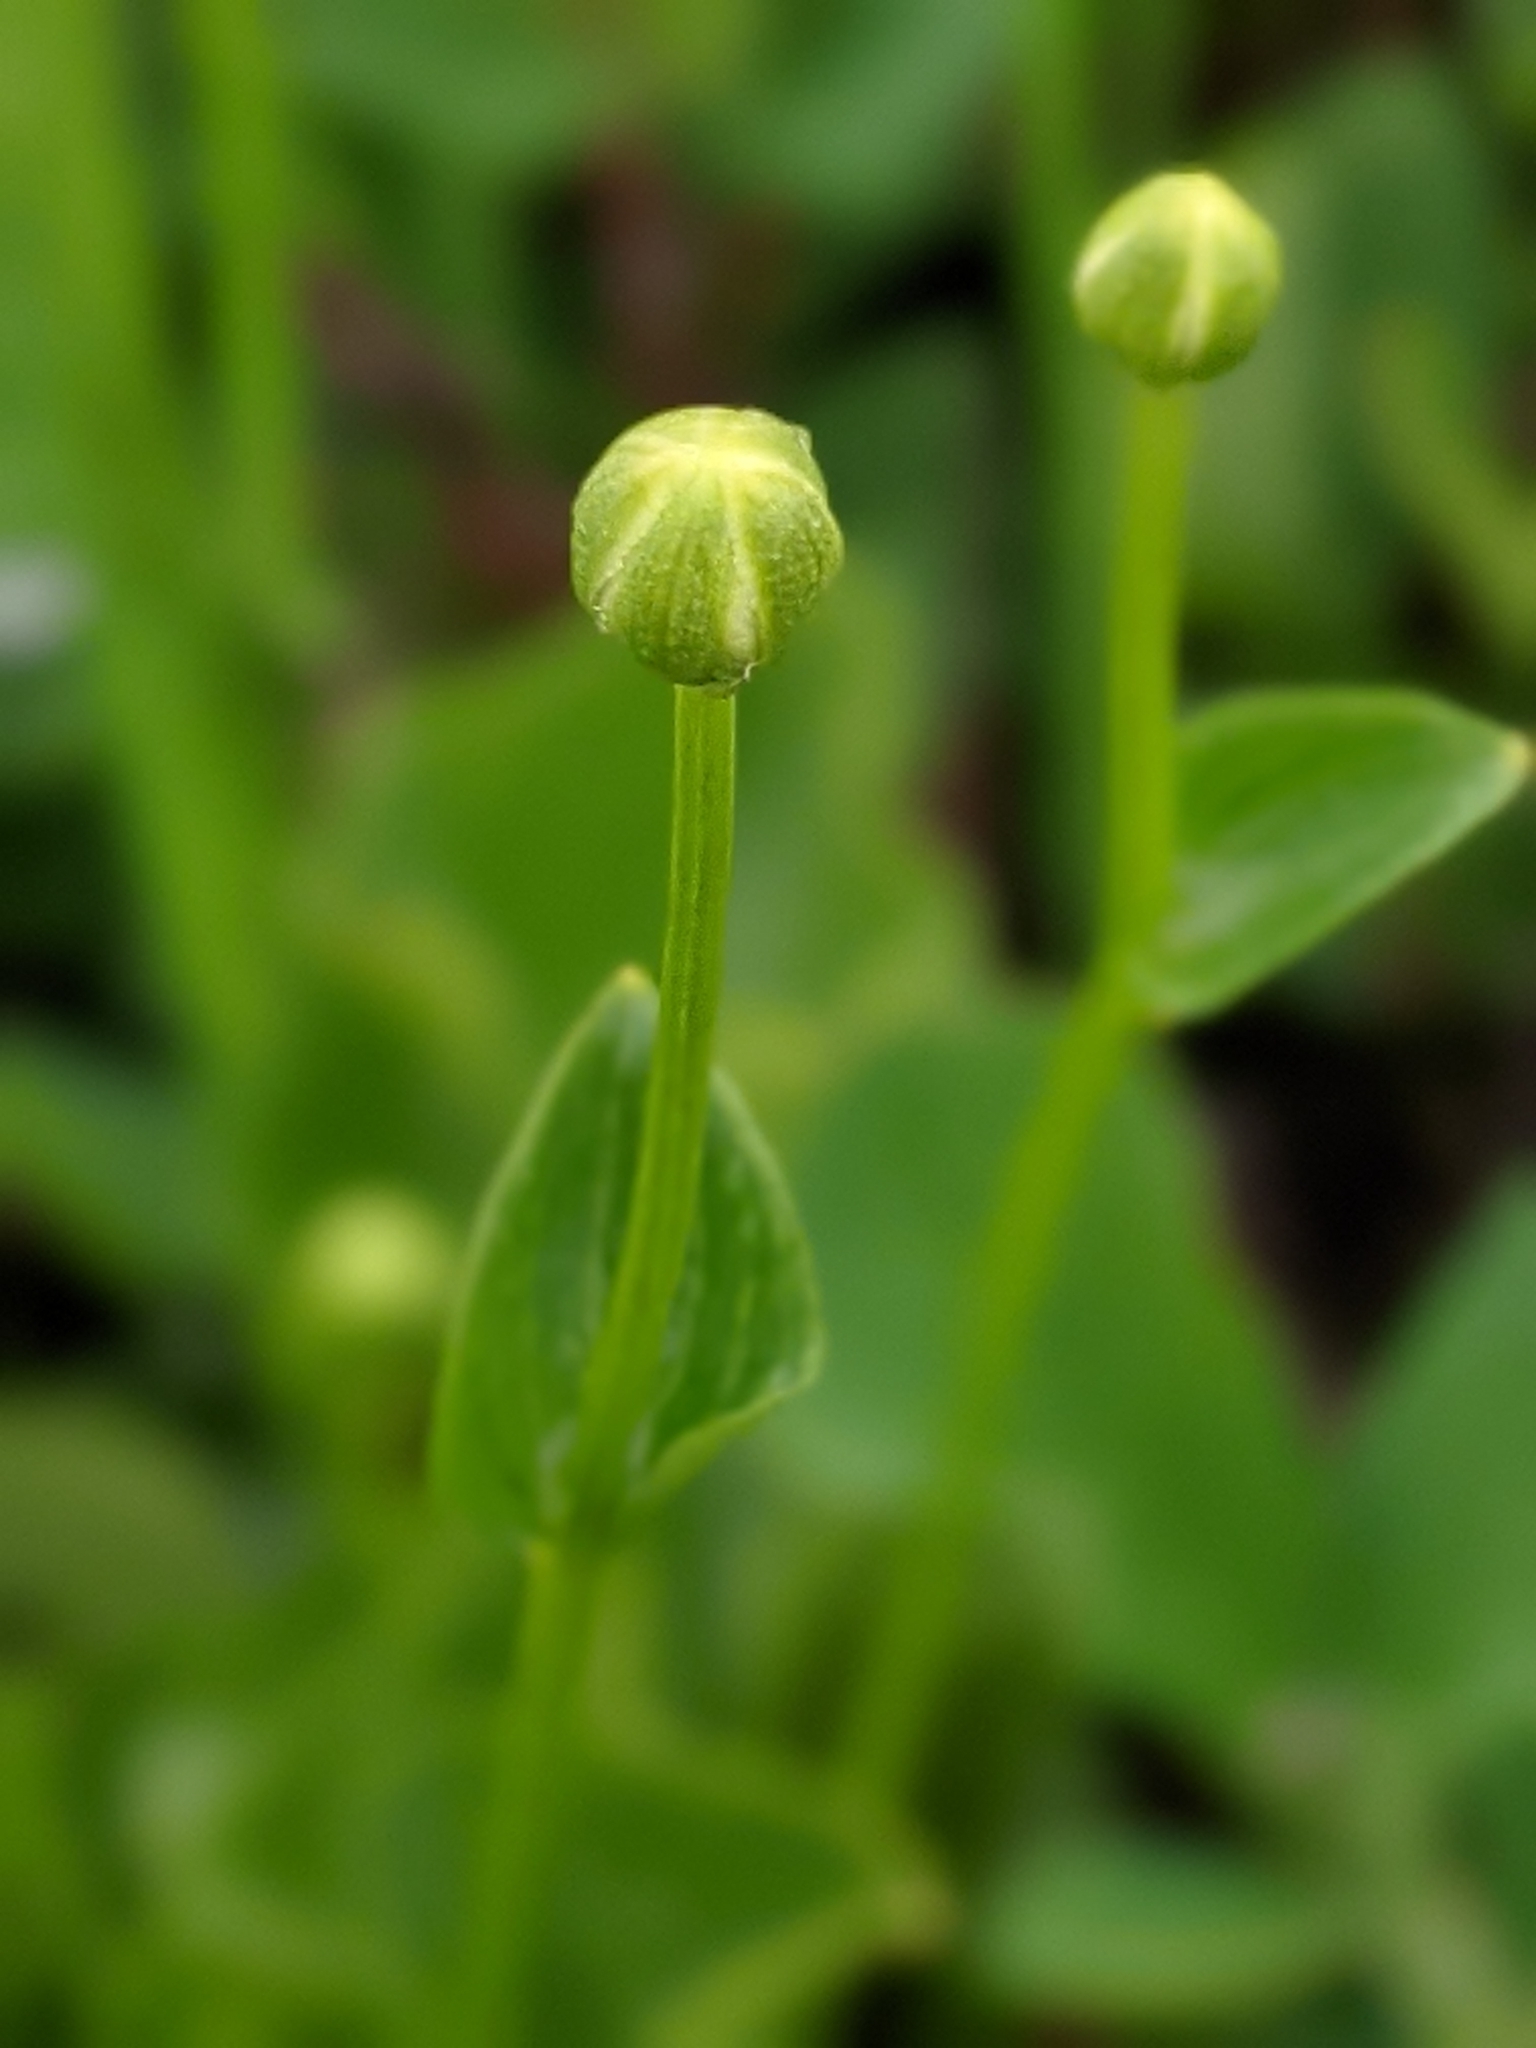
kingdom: Plantae
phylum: Tracheophyta
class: Magnoliopsida
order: Celastrales
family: Parnassiaceae
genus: Parnassia
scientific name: Parnassia fimbriata
